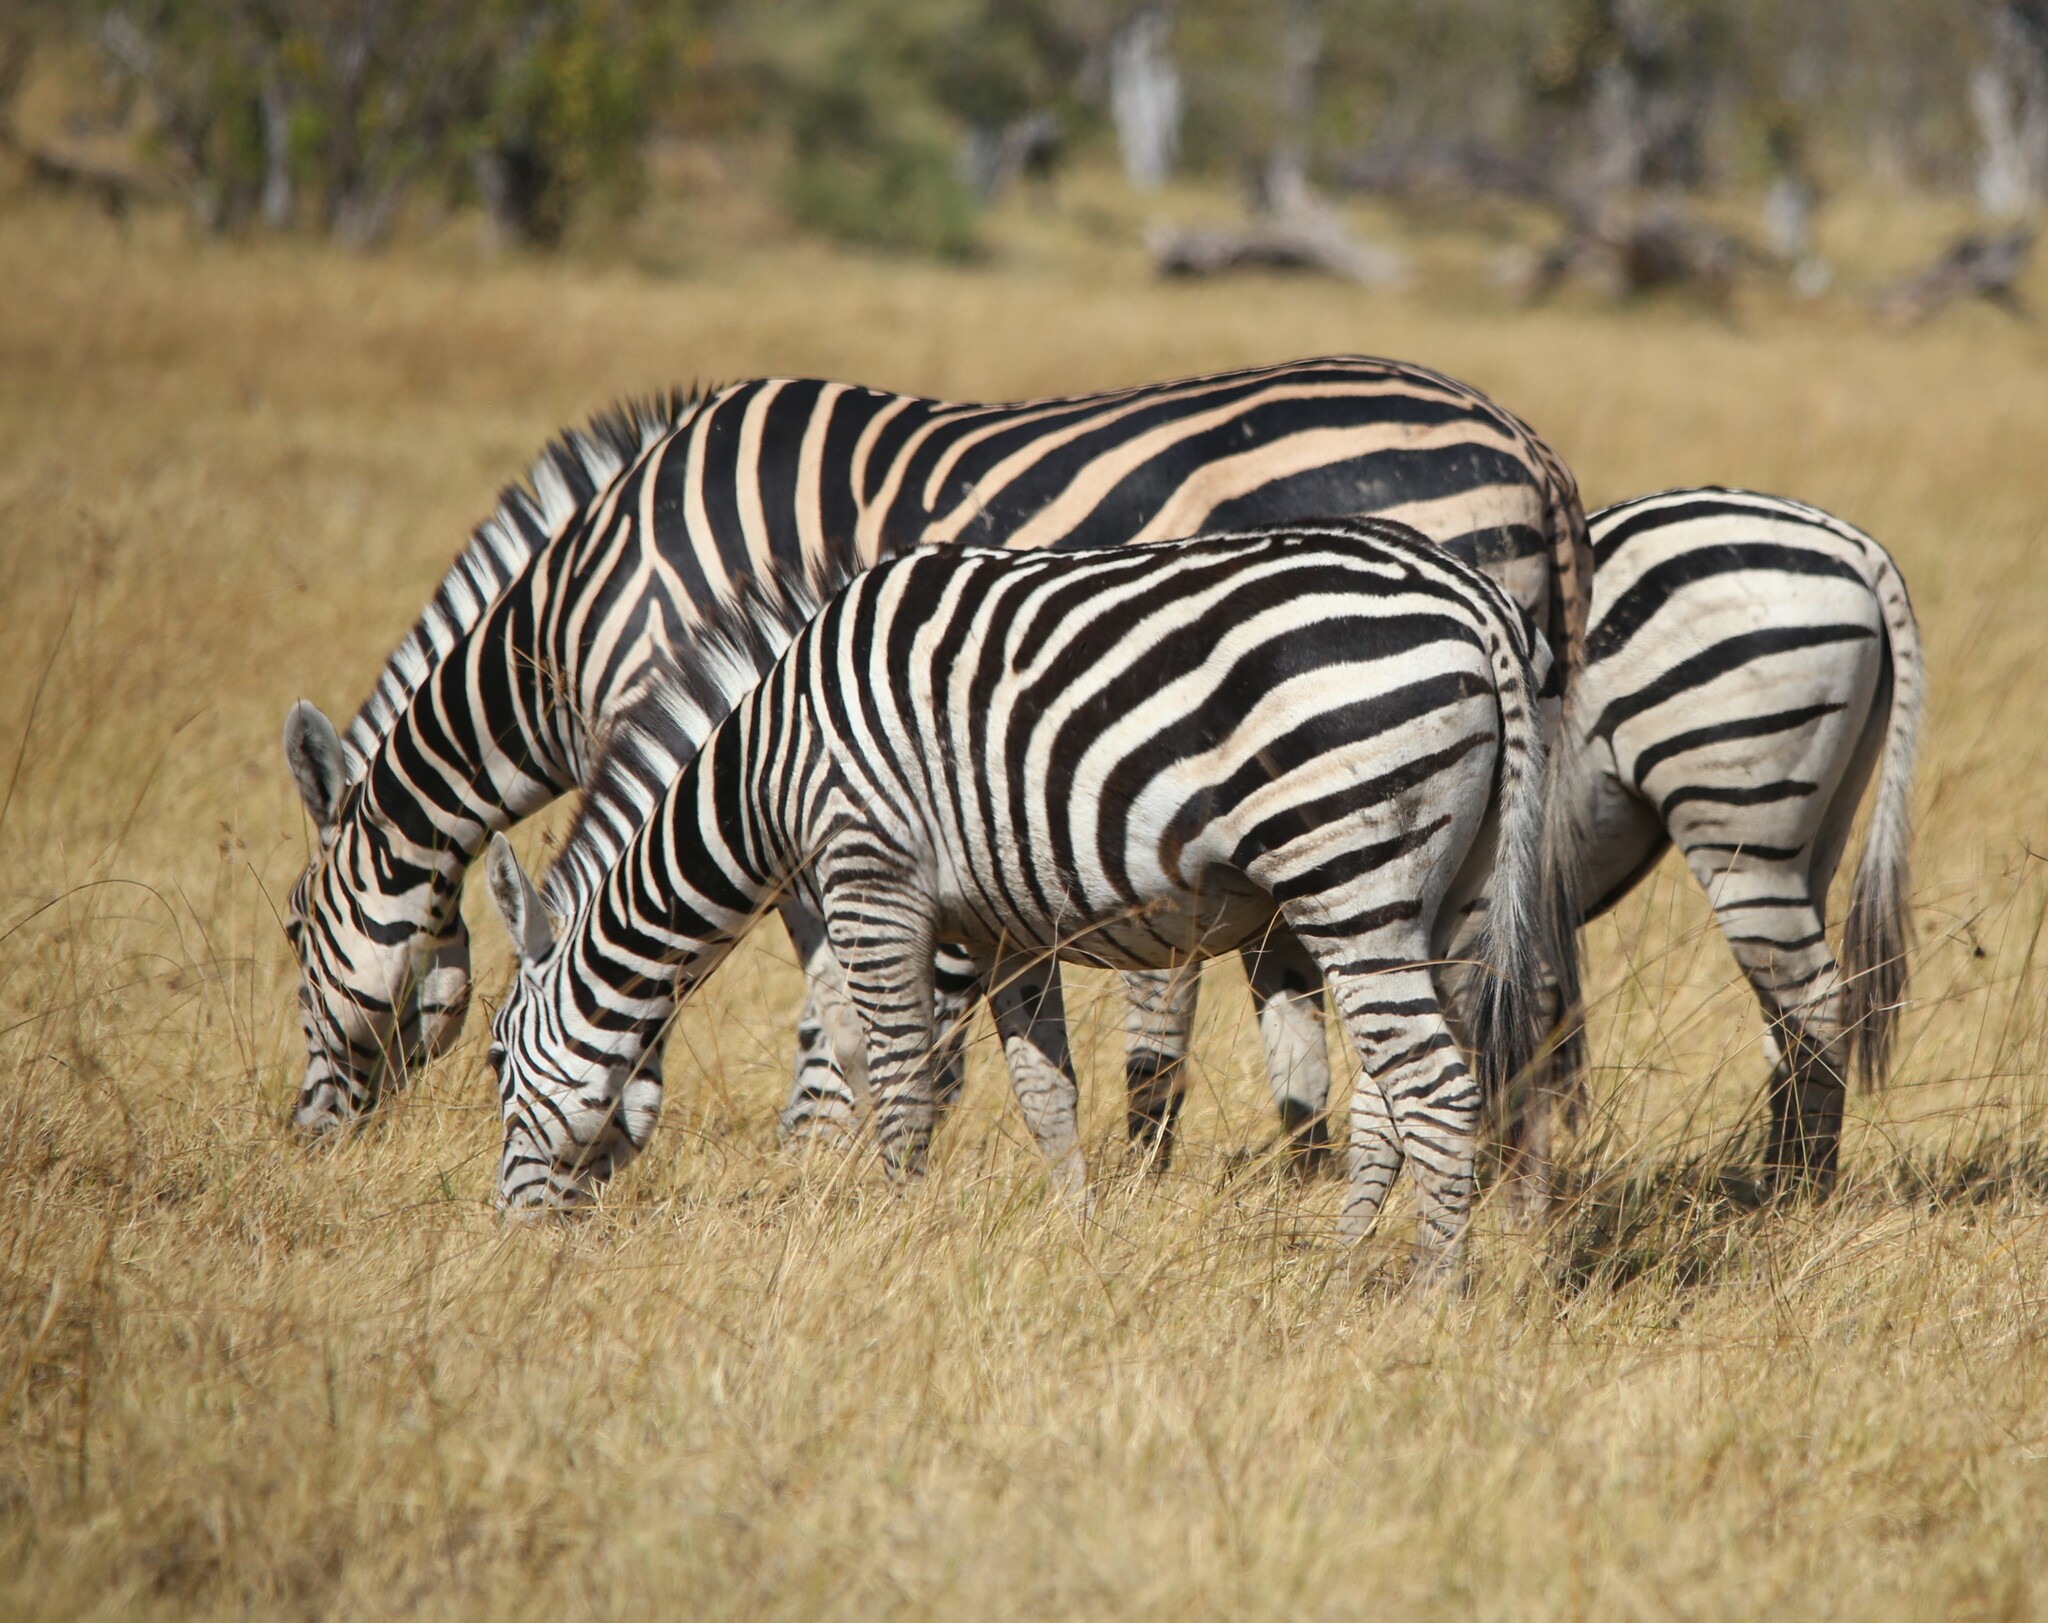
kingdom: Animalia
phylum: Chordata
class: Mammalia
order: Perissodactyla
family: Equidae
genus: Equus
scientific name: Equus quagga
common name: Plains zebra
